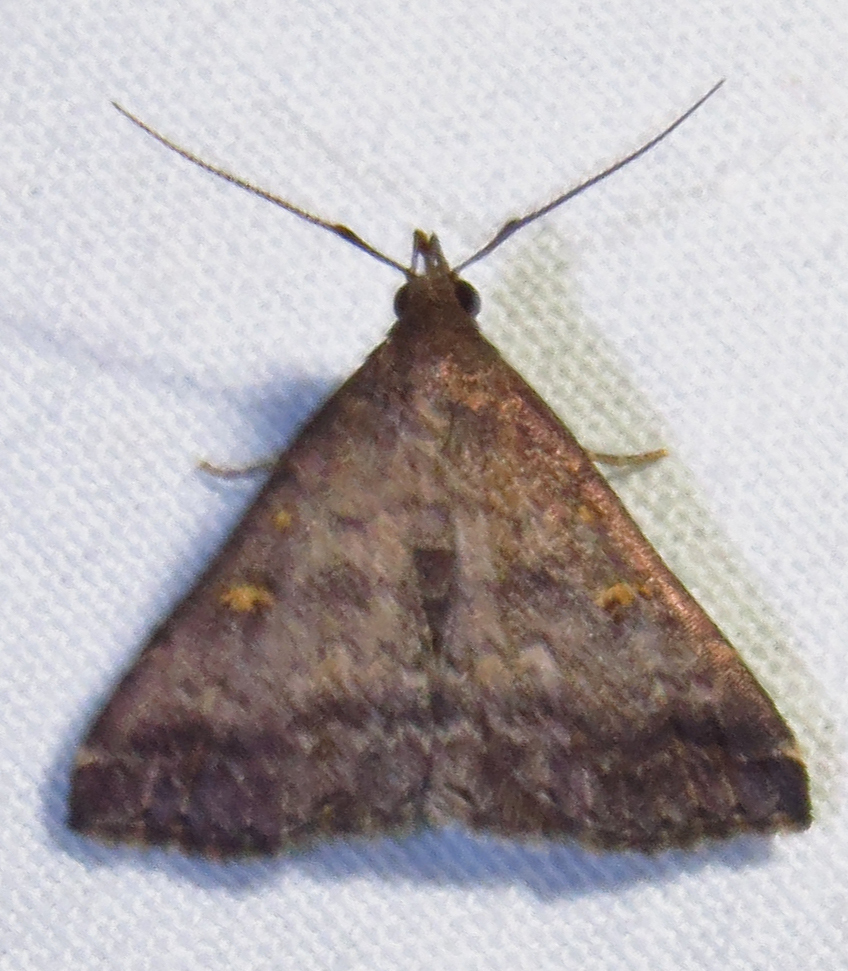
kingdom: Animalia
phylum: Arthropoda
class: Insecta
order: Lepidoptera
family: Erebidae
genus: Tetanolita
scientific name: Tetanolita floridana
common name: Florida tetanolita moth
